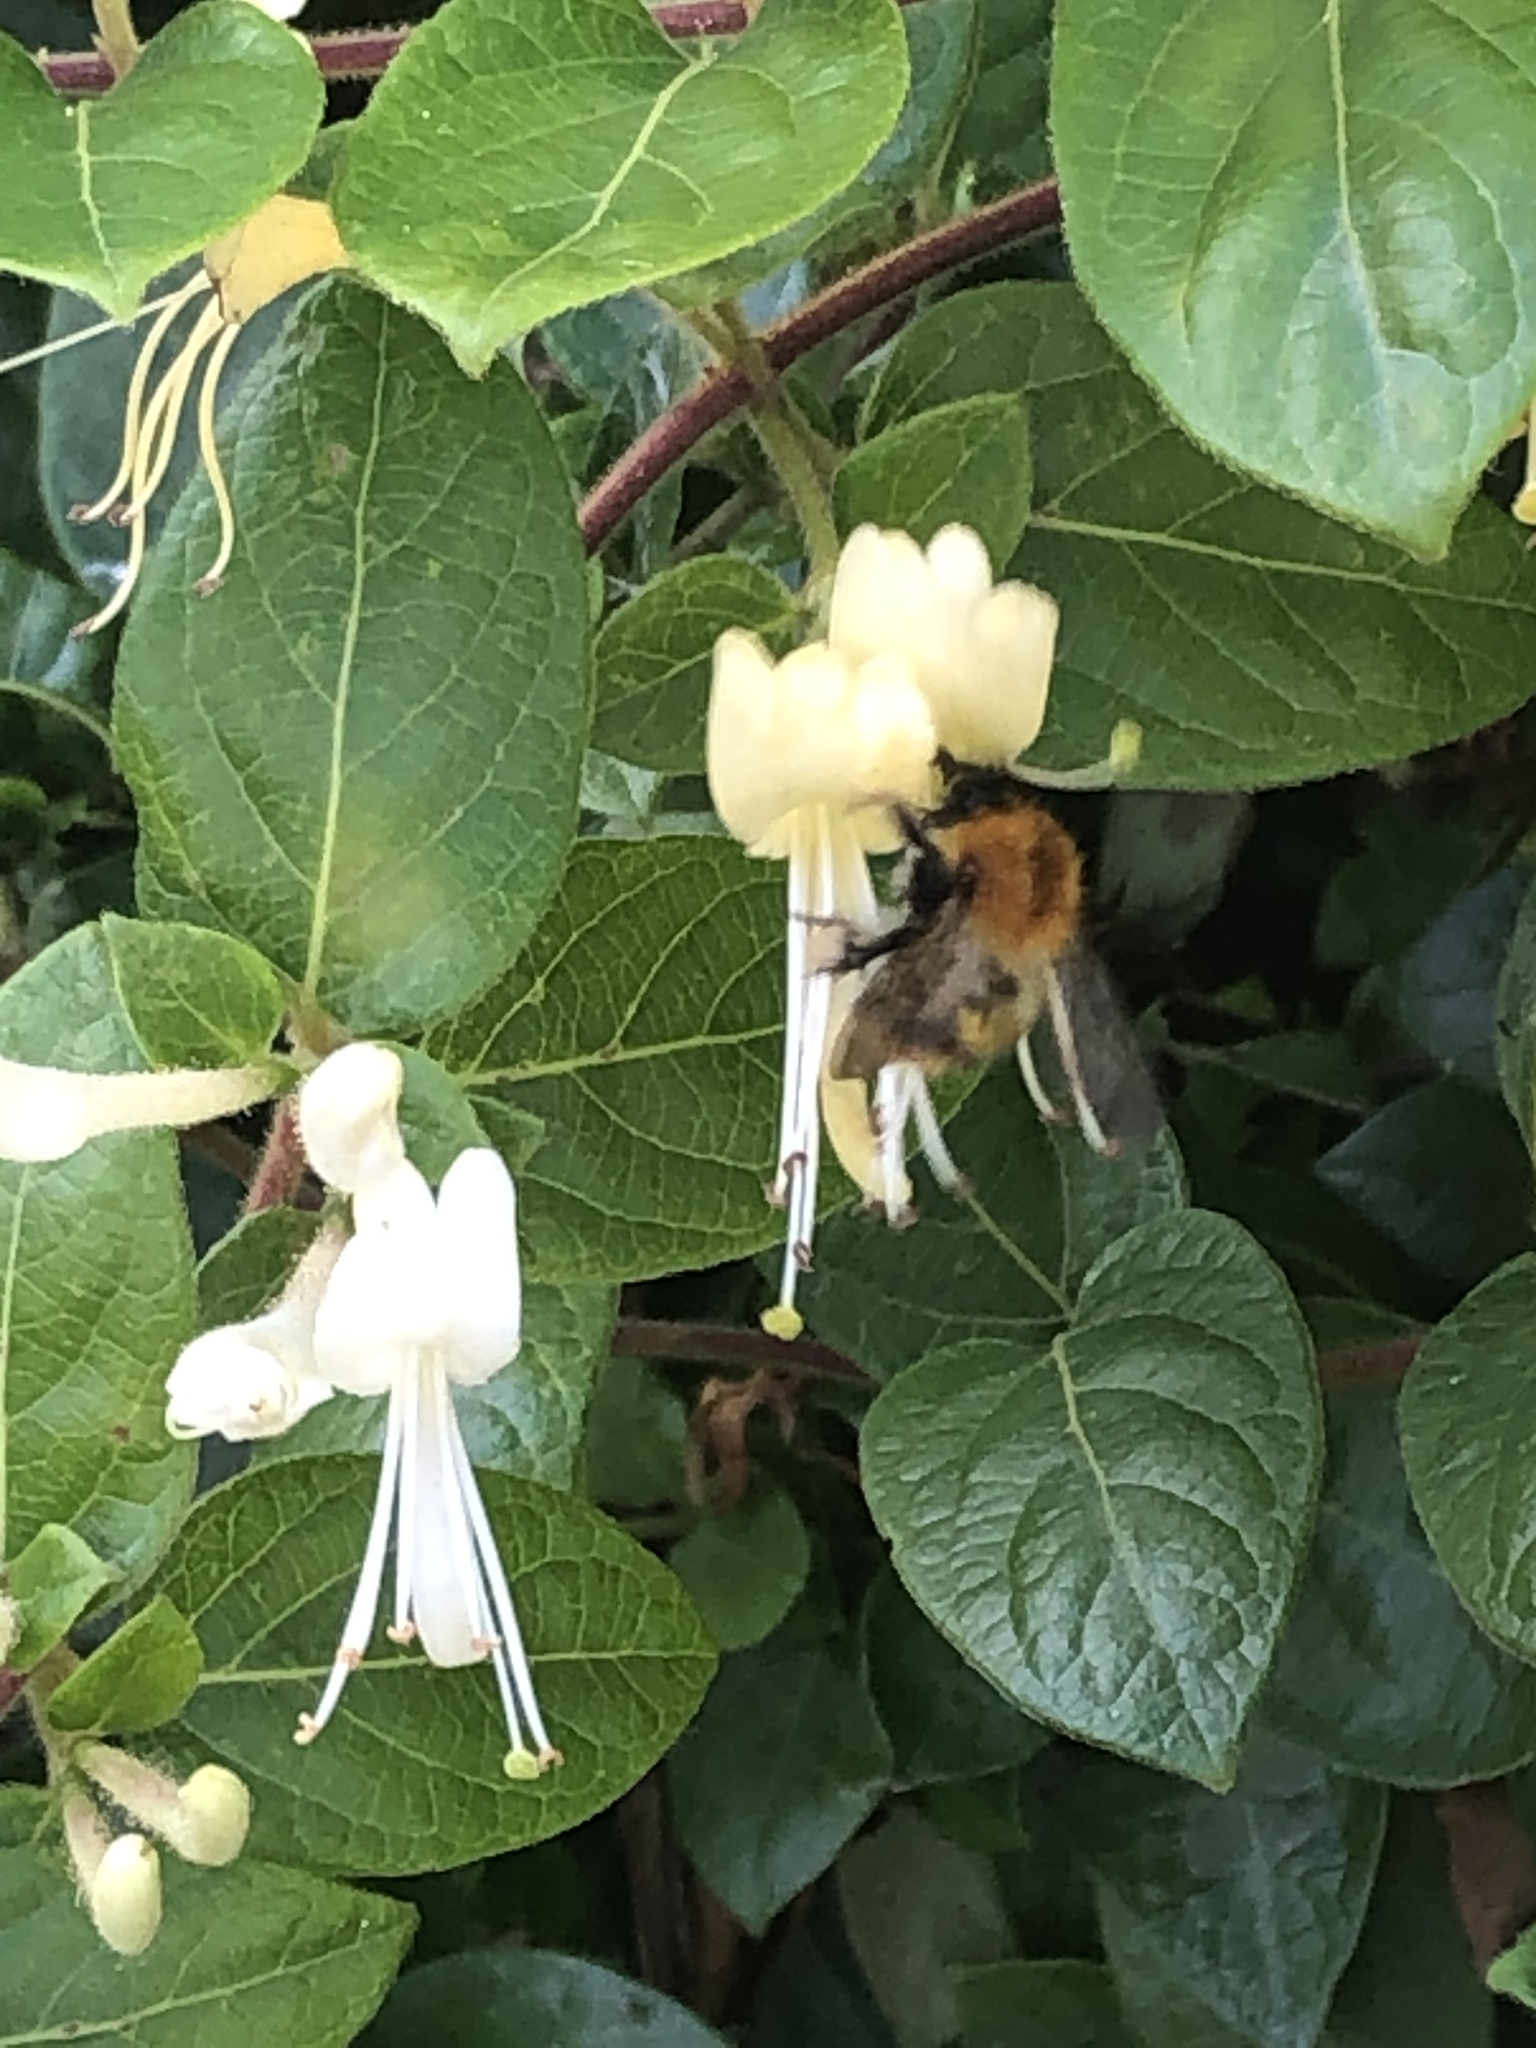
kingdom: Animalia
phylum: Arthropoda
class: Insecta
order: Hymenoptera
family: Apidae
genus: Bombus
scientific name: Bombus pascuorum
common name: Common carder bee
